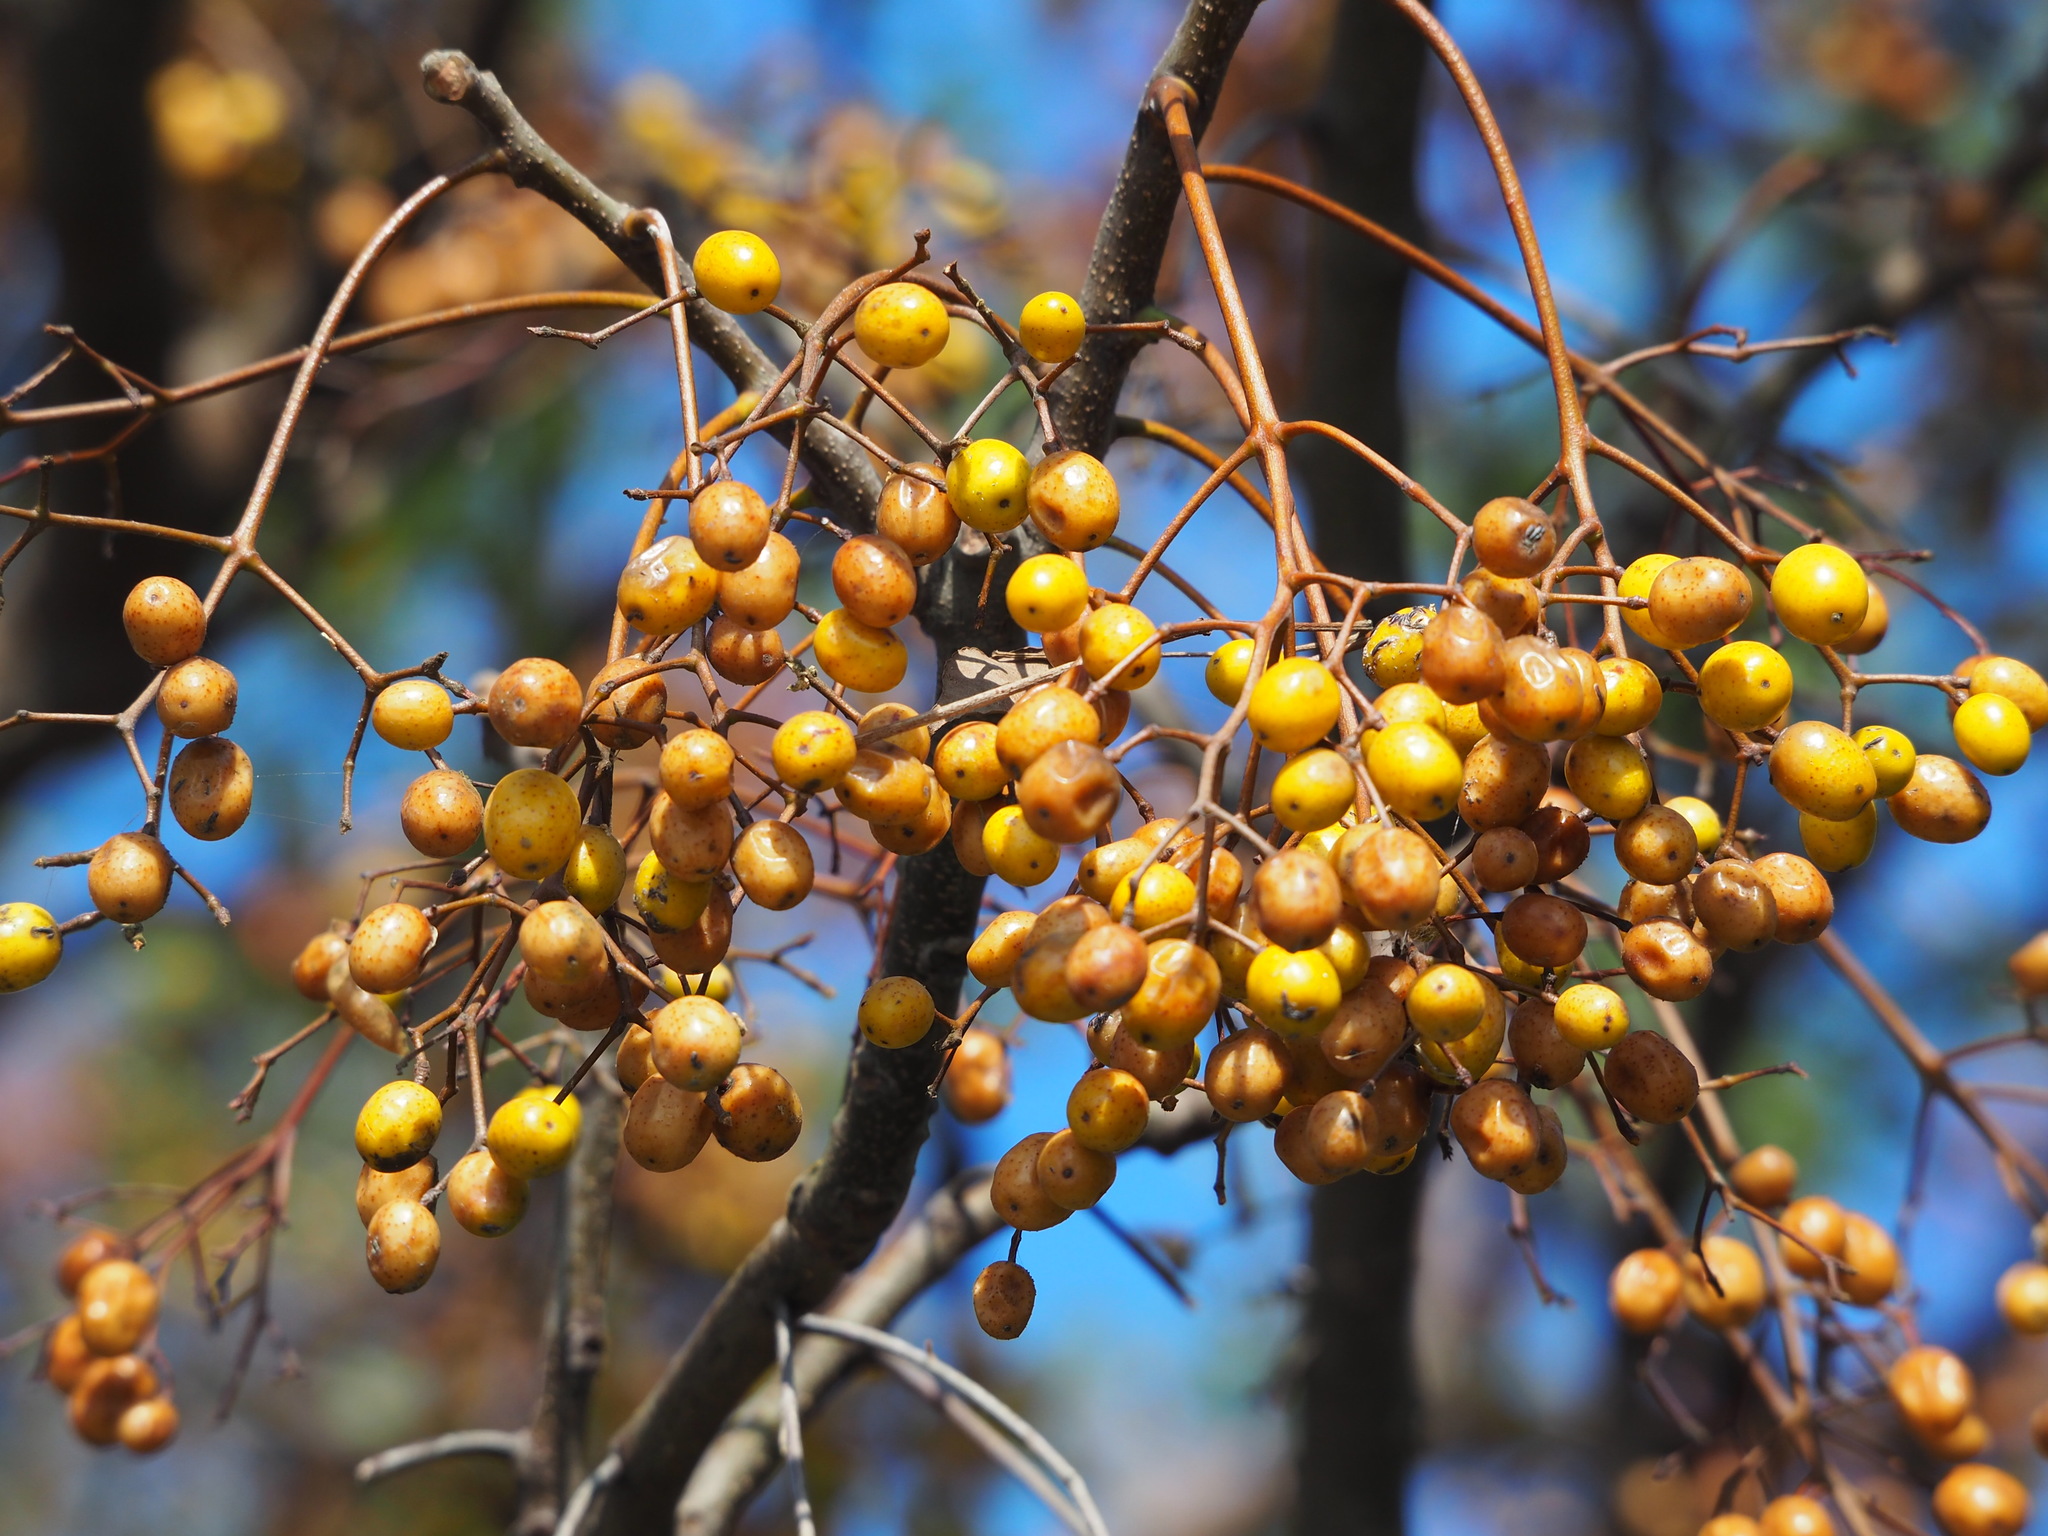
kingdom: Plantae
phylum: Tracheophyta
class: Magnoliopsida
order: Sapindales
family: Meliaceae
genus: Melia
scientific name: Melia azedarach
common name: Chinaberrytree
